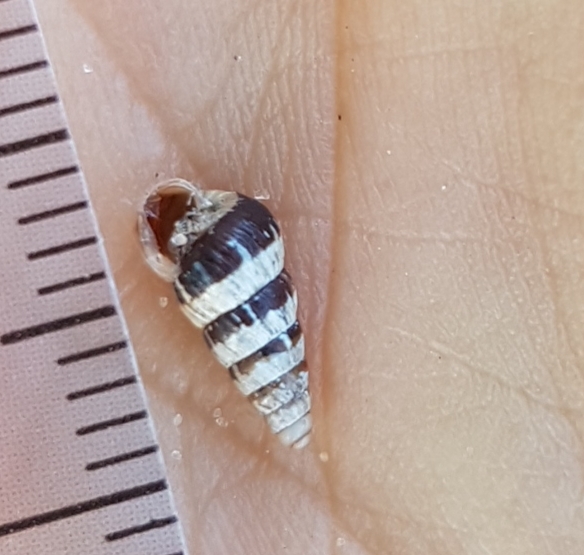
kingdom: Animalia
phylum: Mollusca
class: Gastropoda
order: Stylommatophora
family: Geomitridae
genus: Cochlicella
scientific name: Cochlicella acuta
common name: Pointed snail
